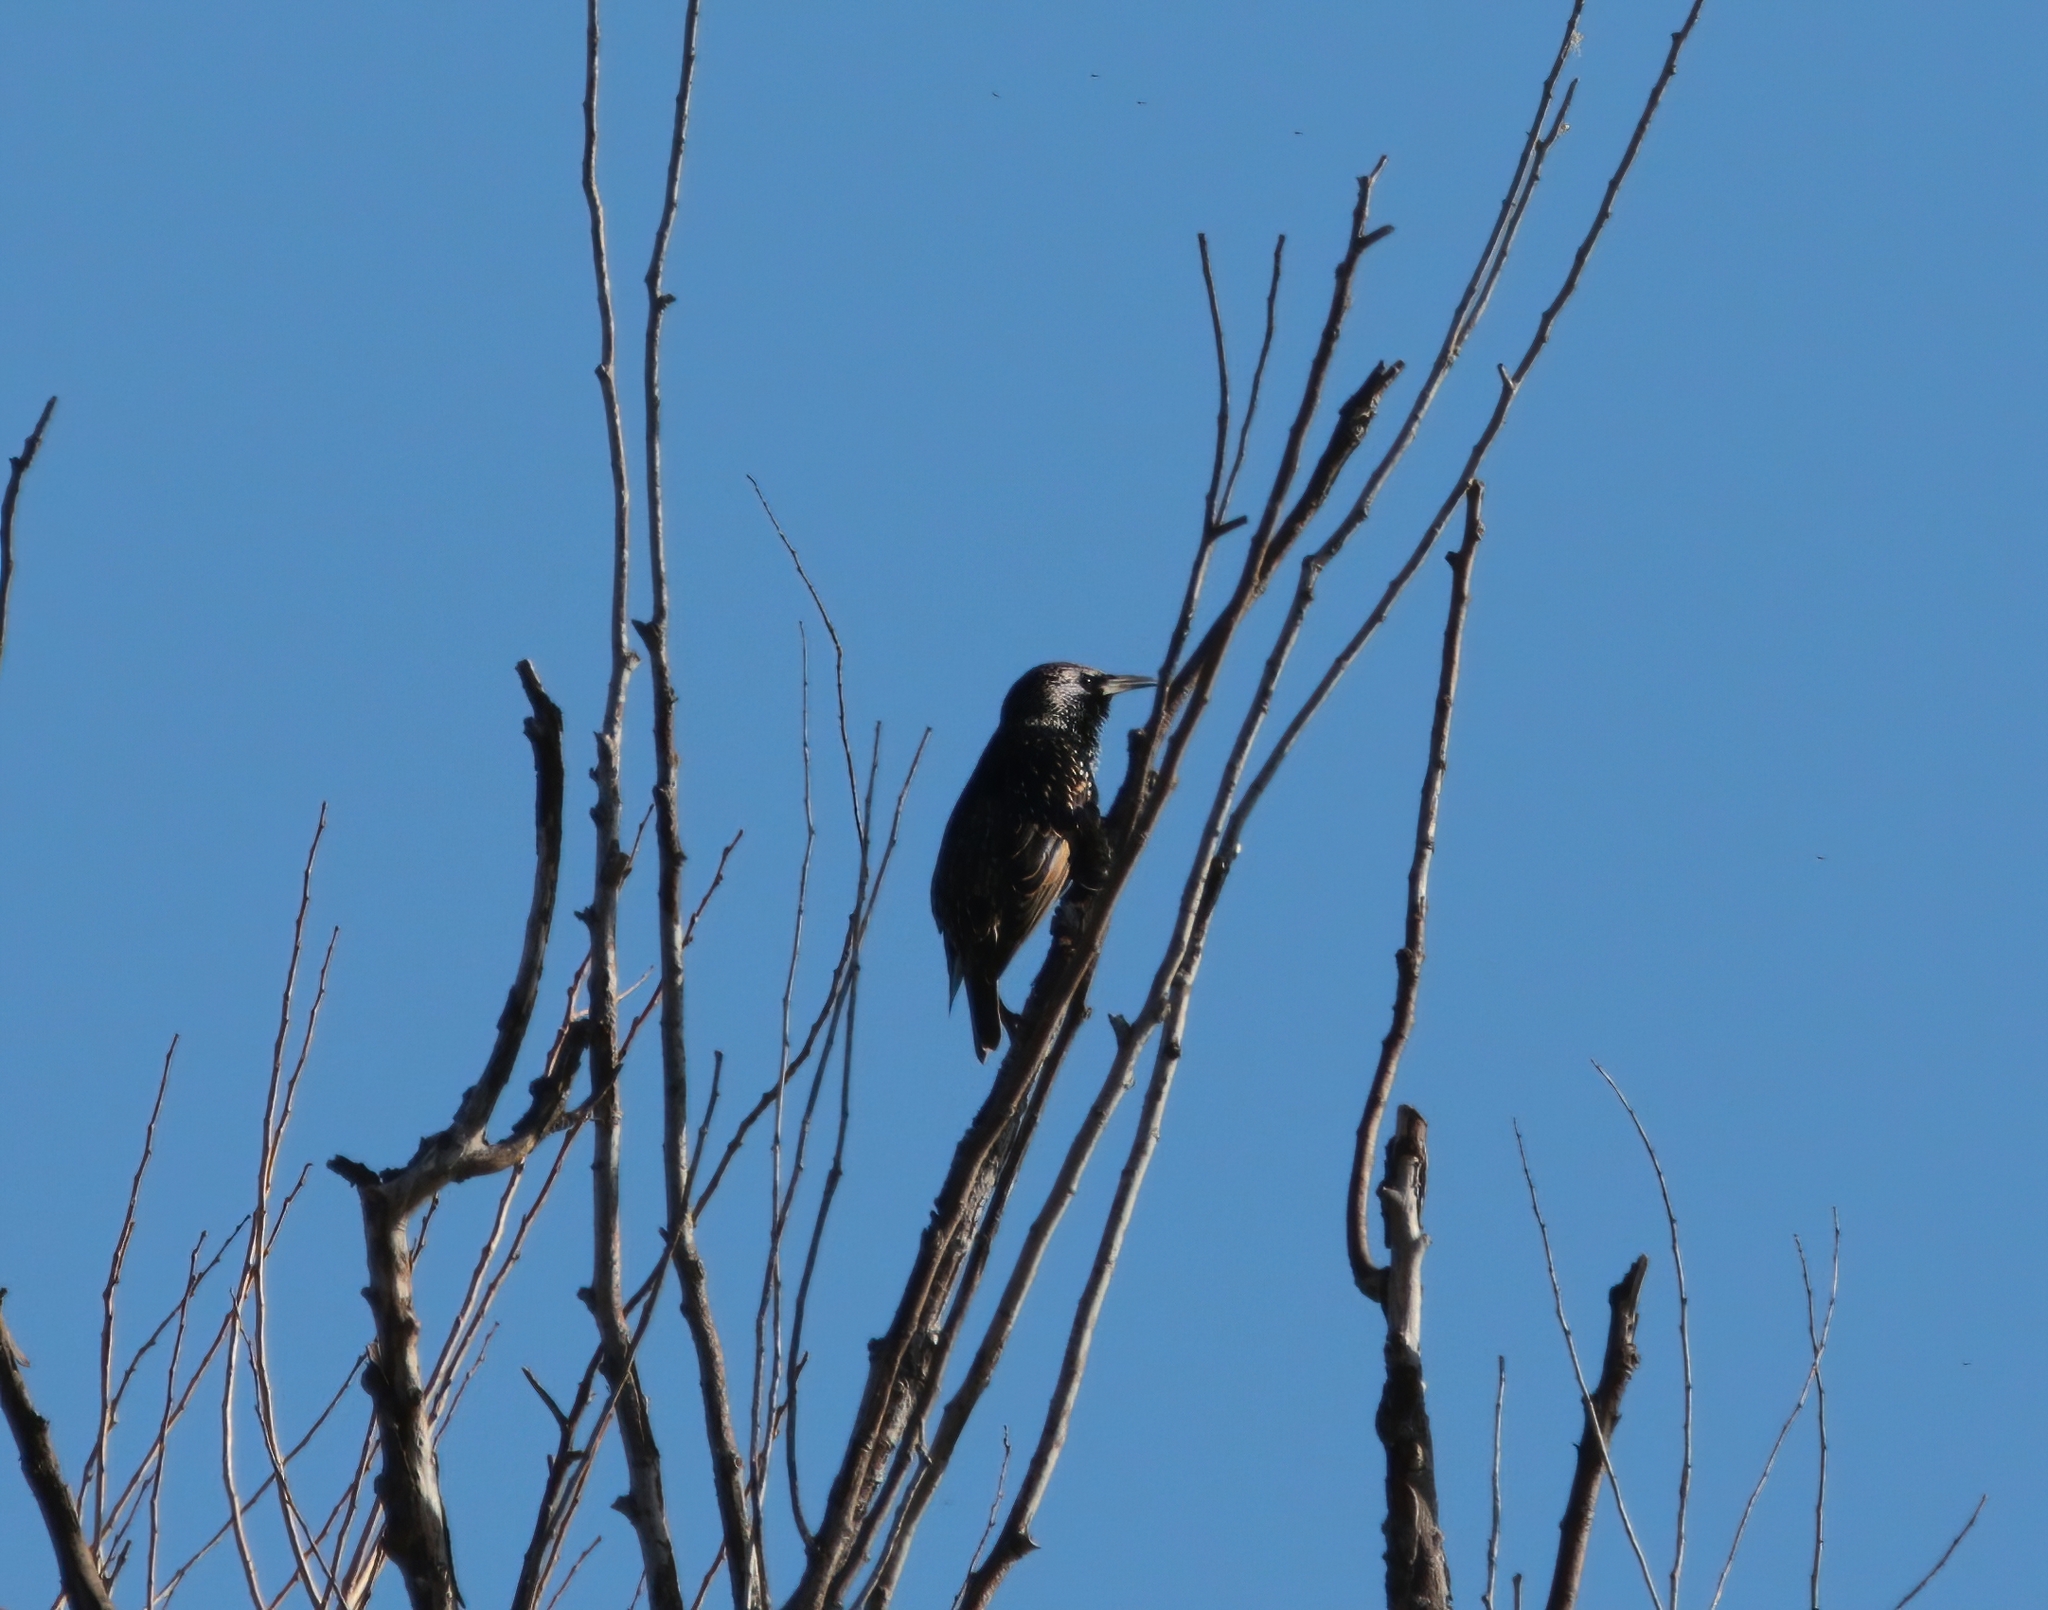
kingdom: Animalia
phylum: Chordata
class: Aves
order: Passeriformes
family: Sturnidae
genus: Sturnus
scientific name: Sturnus vulgaris
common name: Common starling
